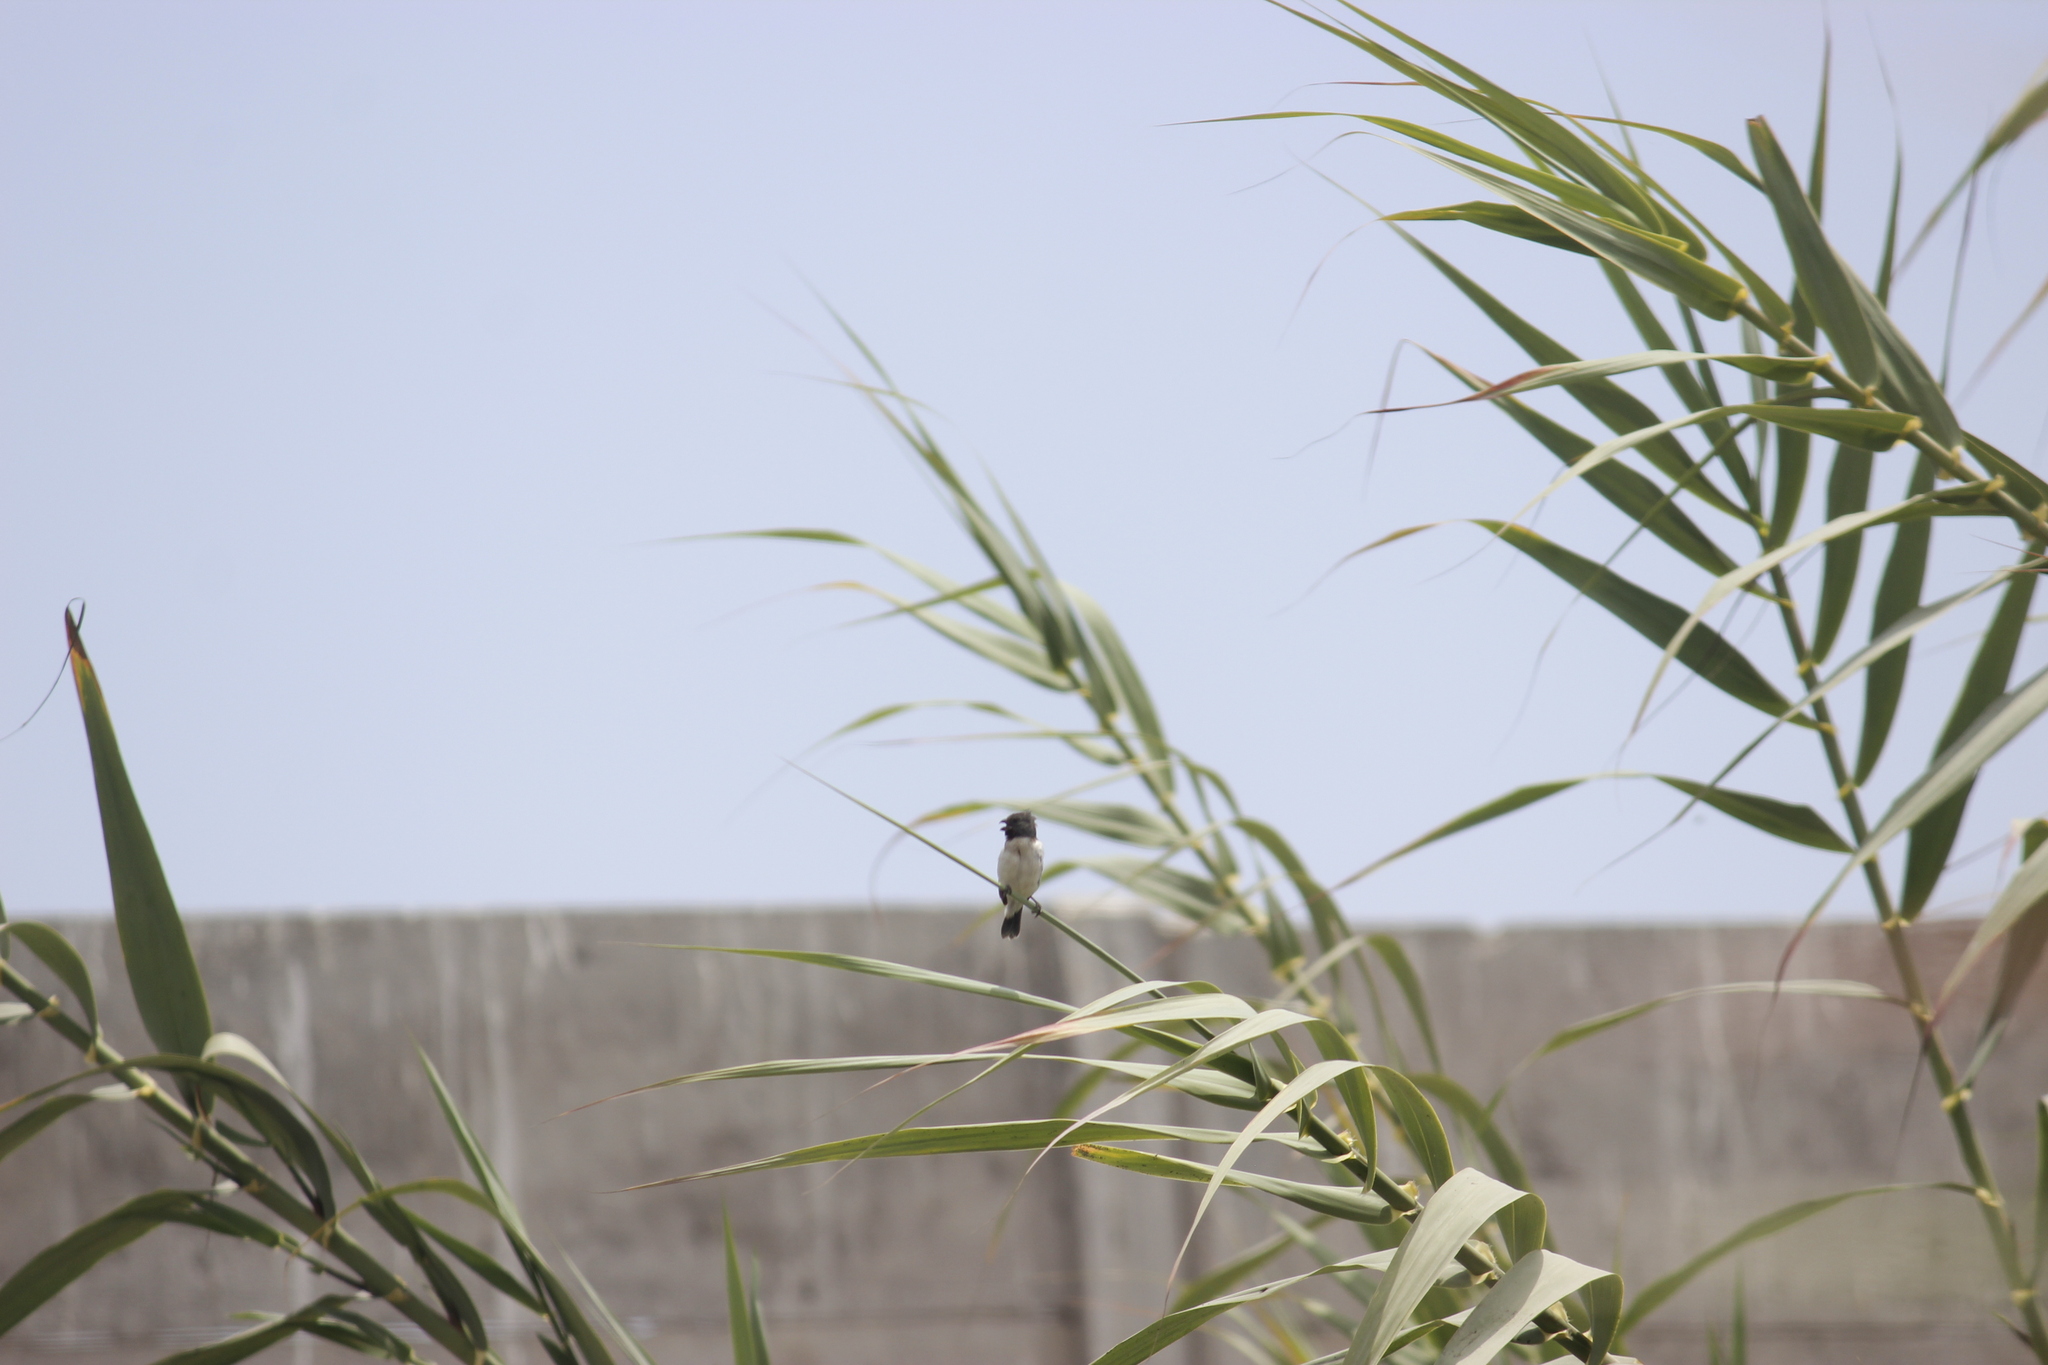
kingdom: Animalia
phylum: Chordata
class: Aves
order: Passeriformes
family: Thraupidae
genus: Sporophila
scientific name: Sporophila telasco
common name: Chestnut-throated seedeater
